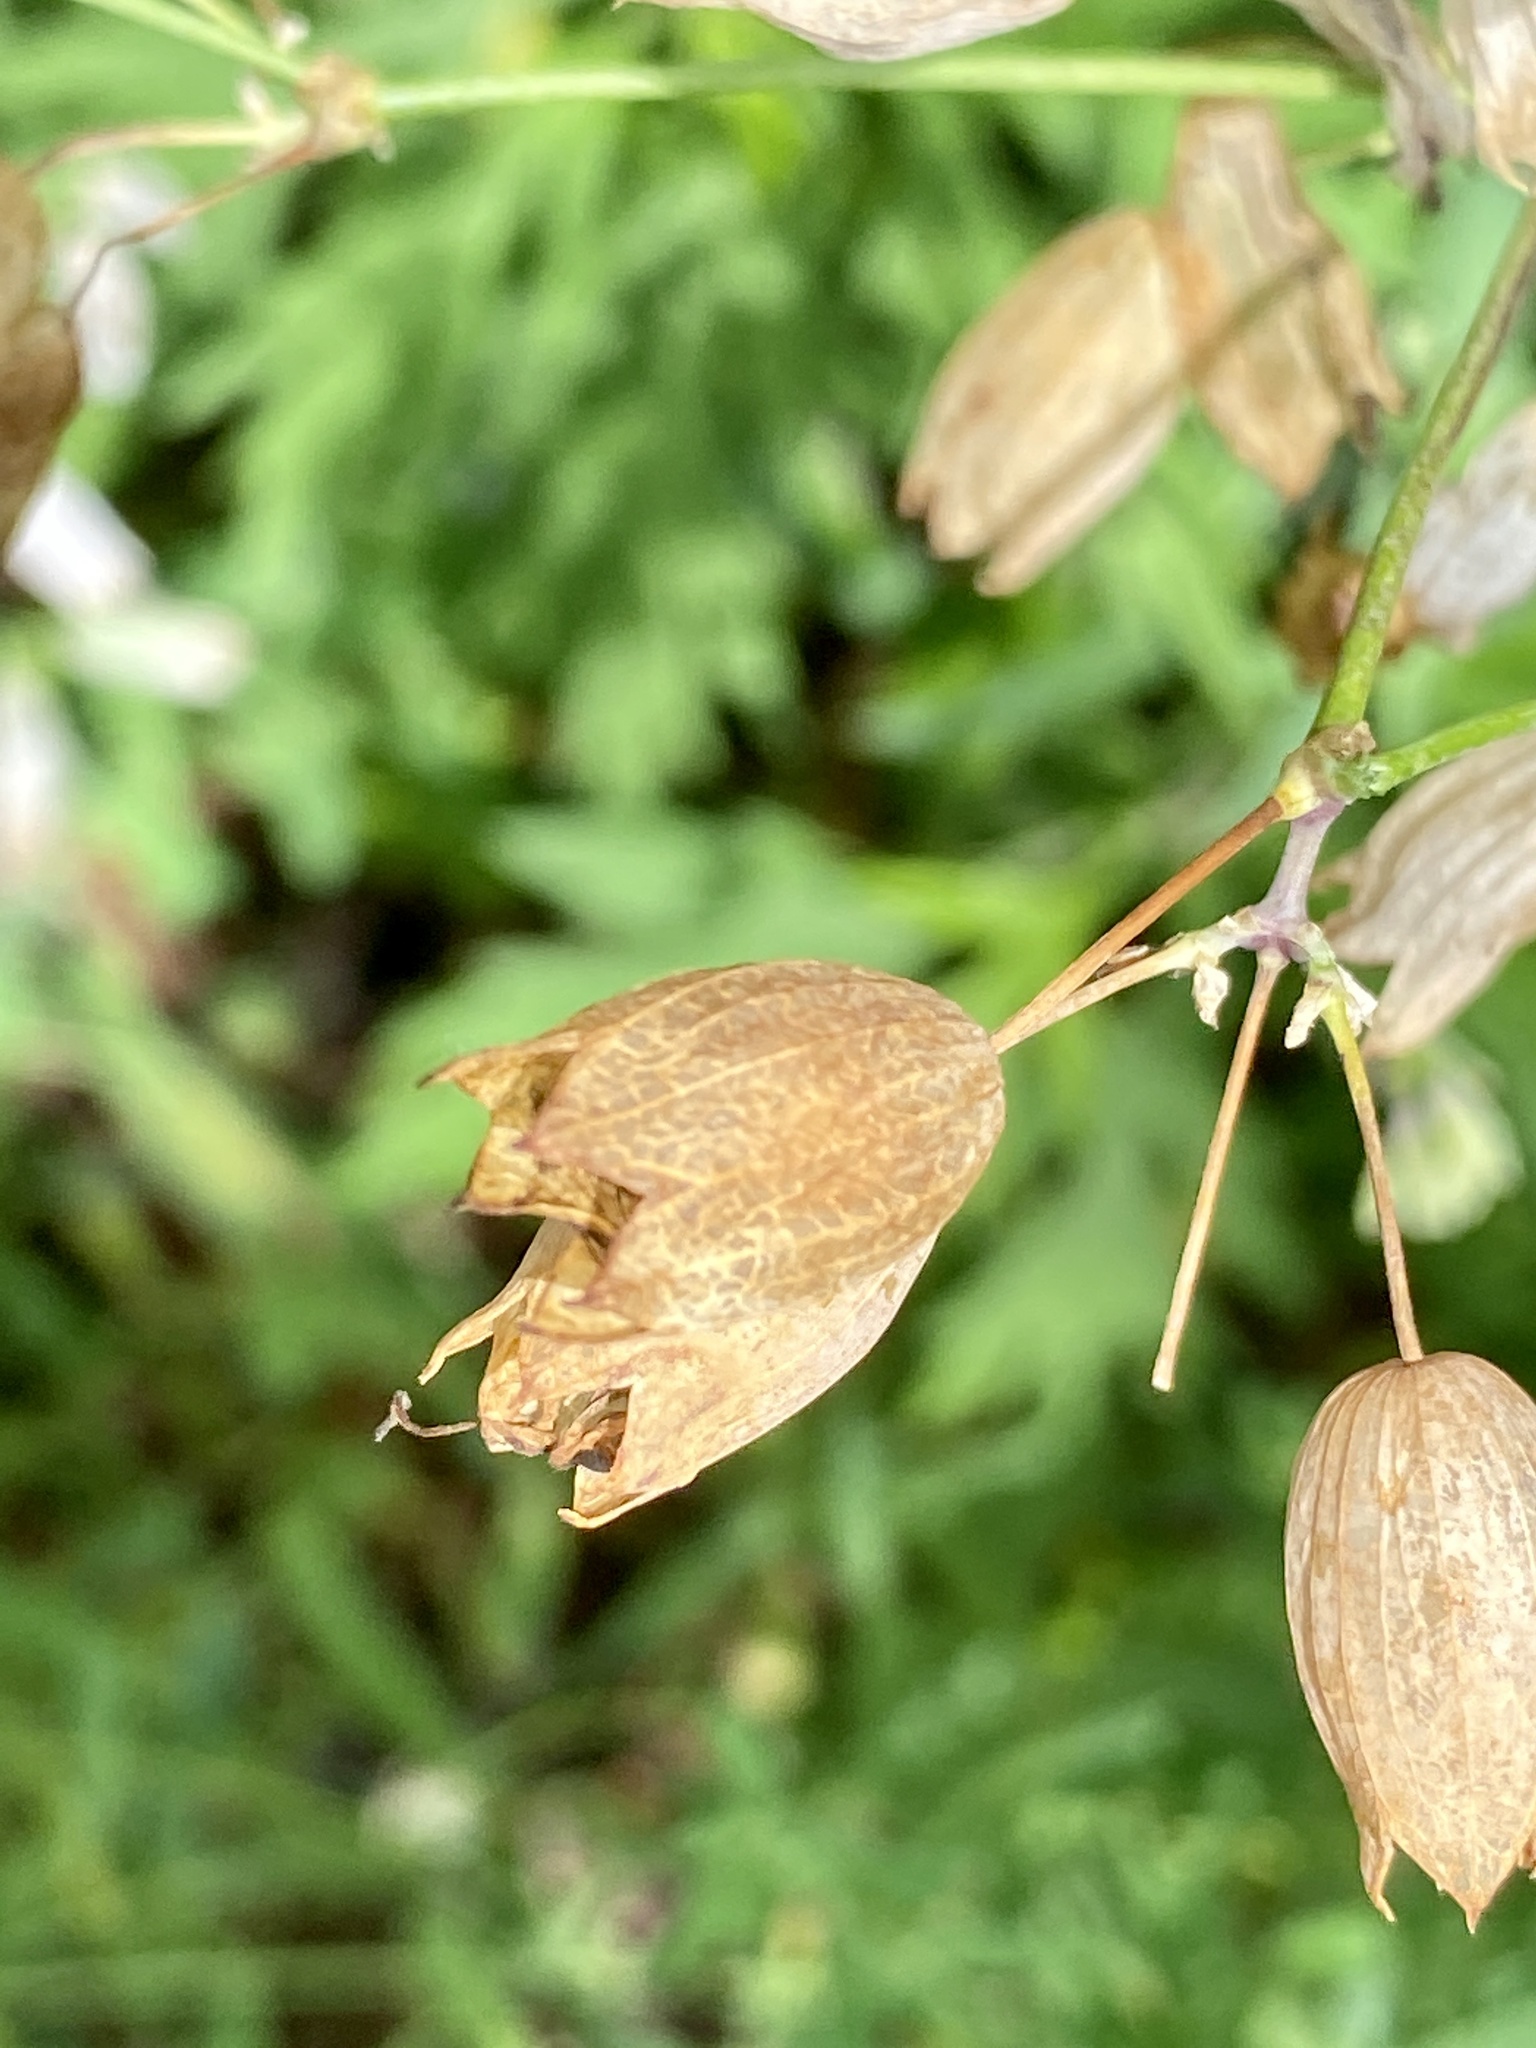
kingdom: Plantae
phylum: Tracheophyta
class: Magnoliopsida
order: Caryophyllales
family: Caryophyllaceae
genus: Silene
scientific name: Silene vulgaris
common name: Bladder campion
